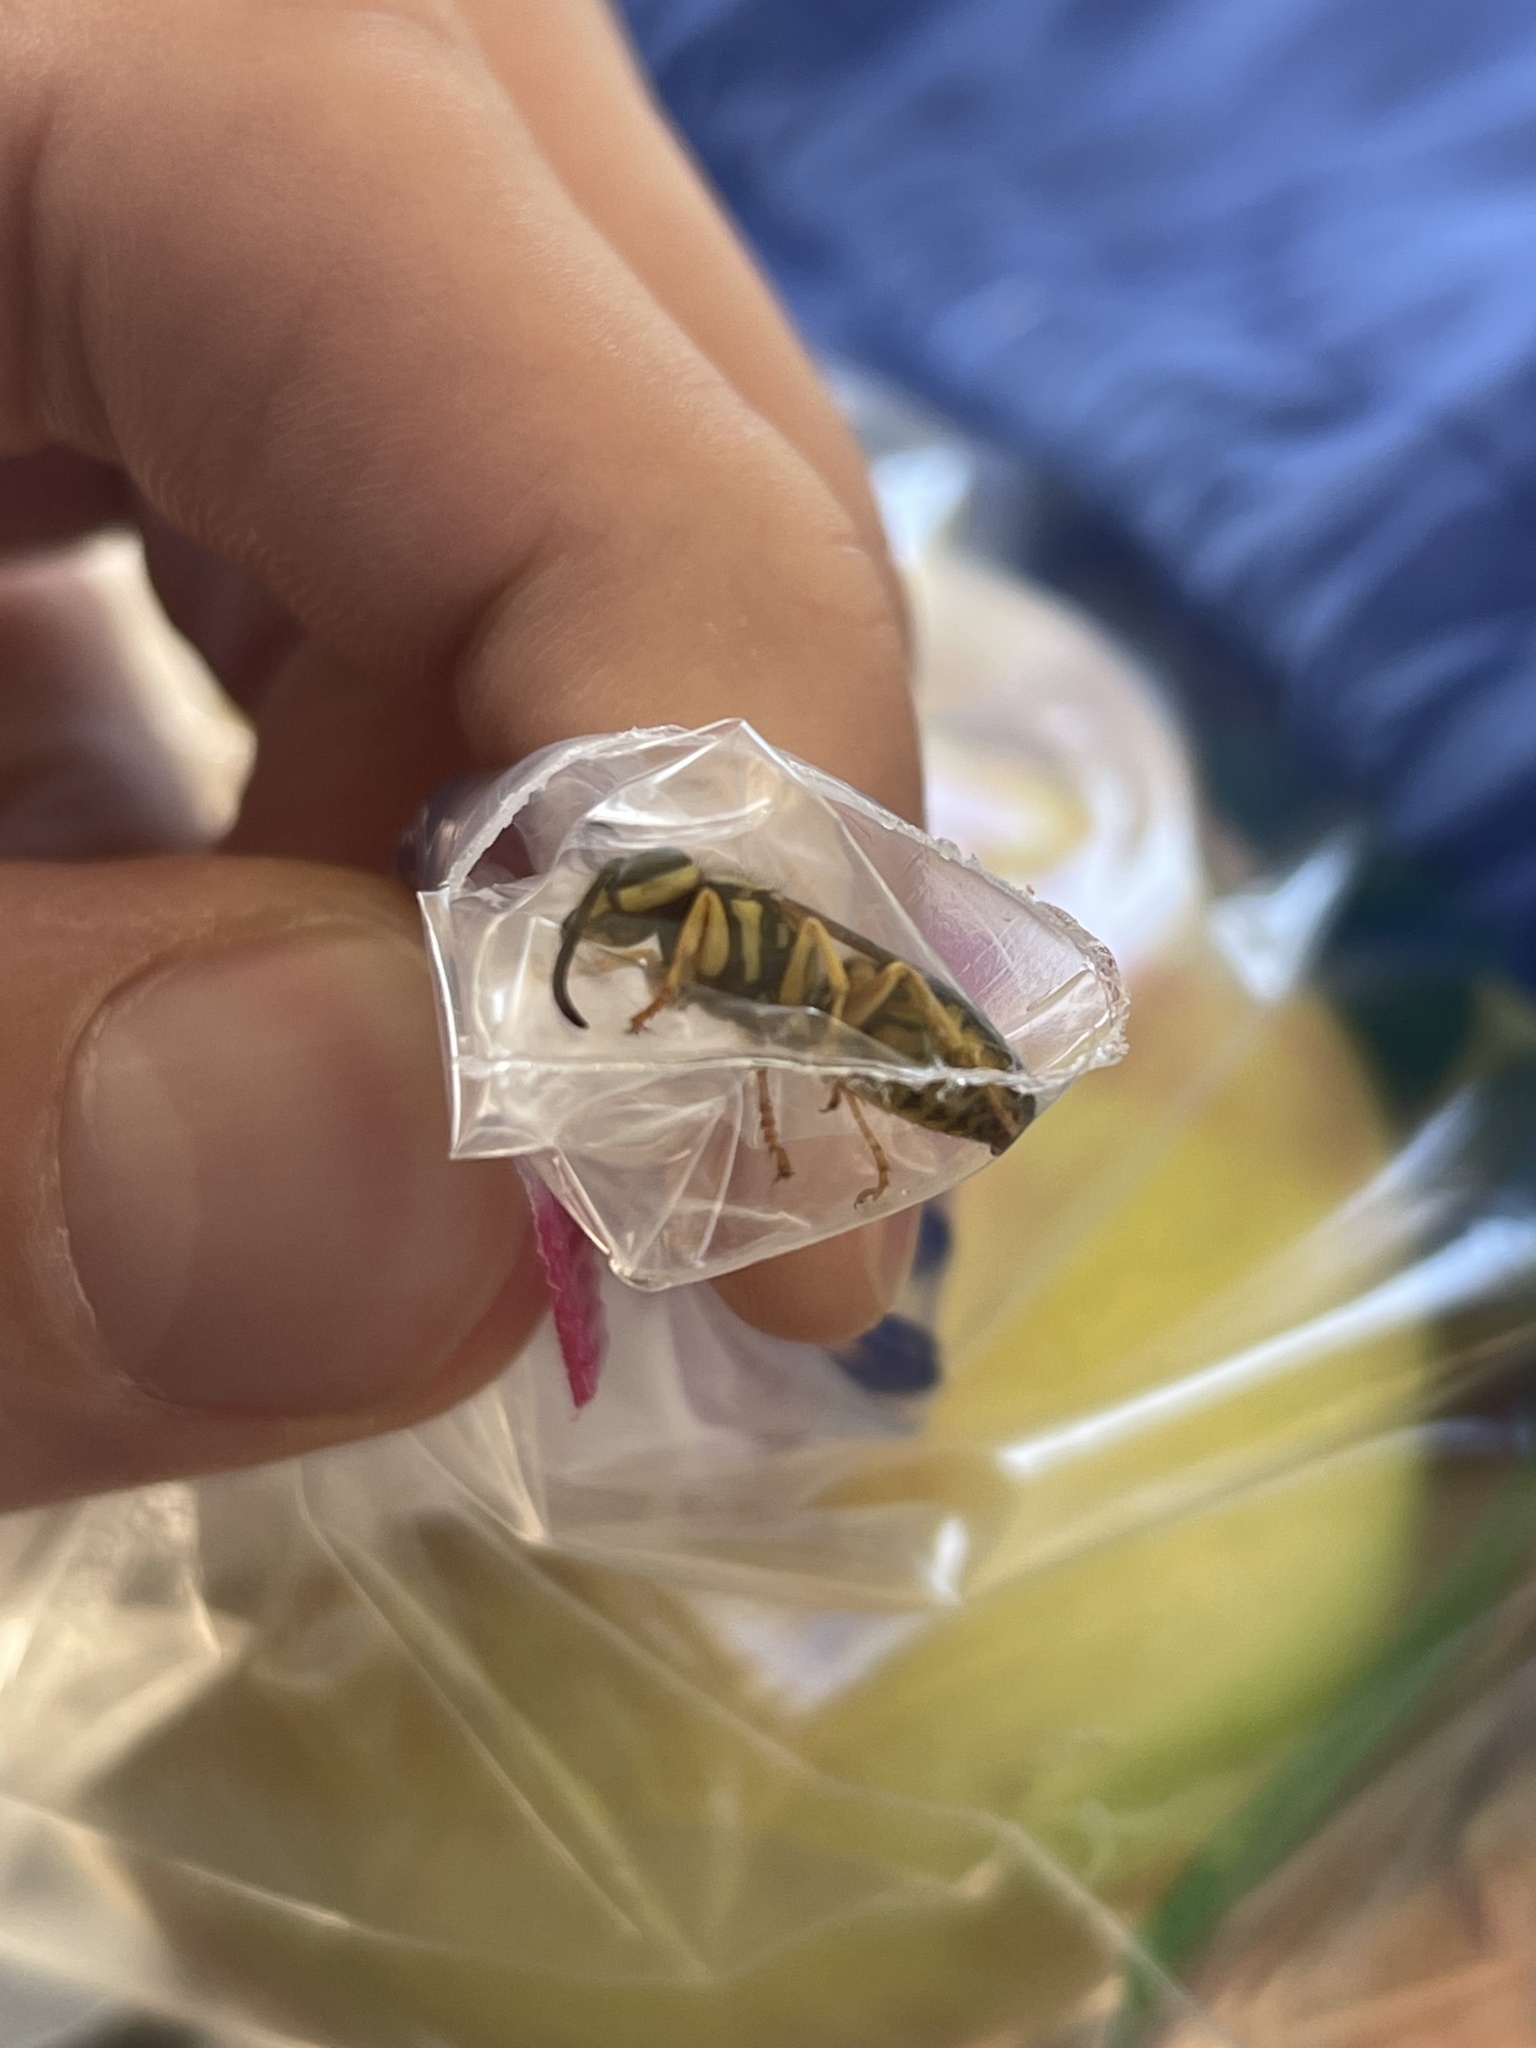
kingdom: Animalia
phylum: Arthropoda
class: Insecta
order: Hymenoptera
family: Vespidae
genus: Vespula
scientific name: Vespula squamosa
